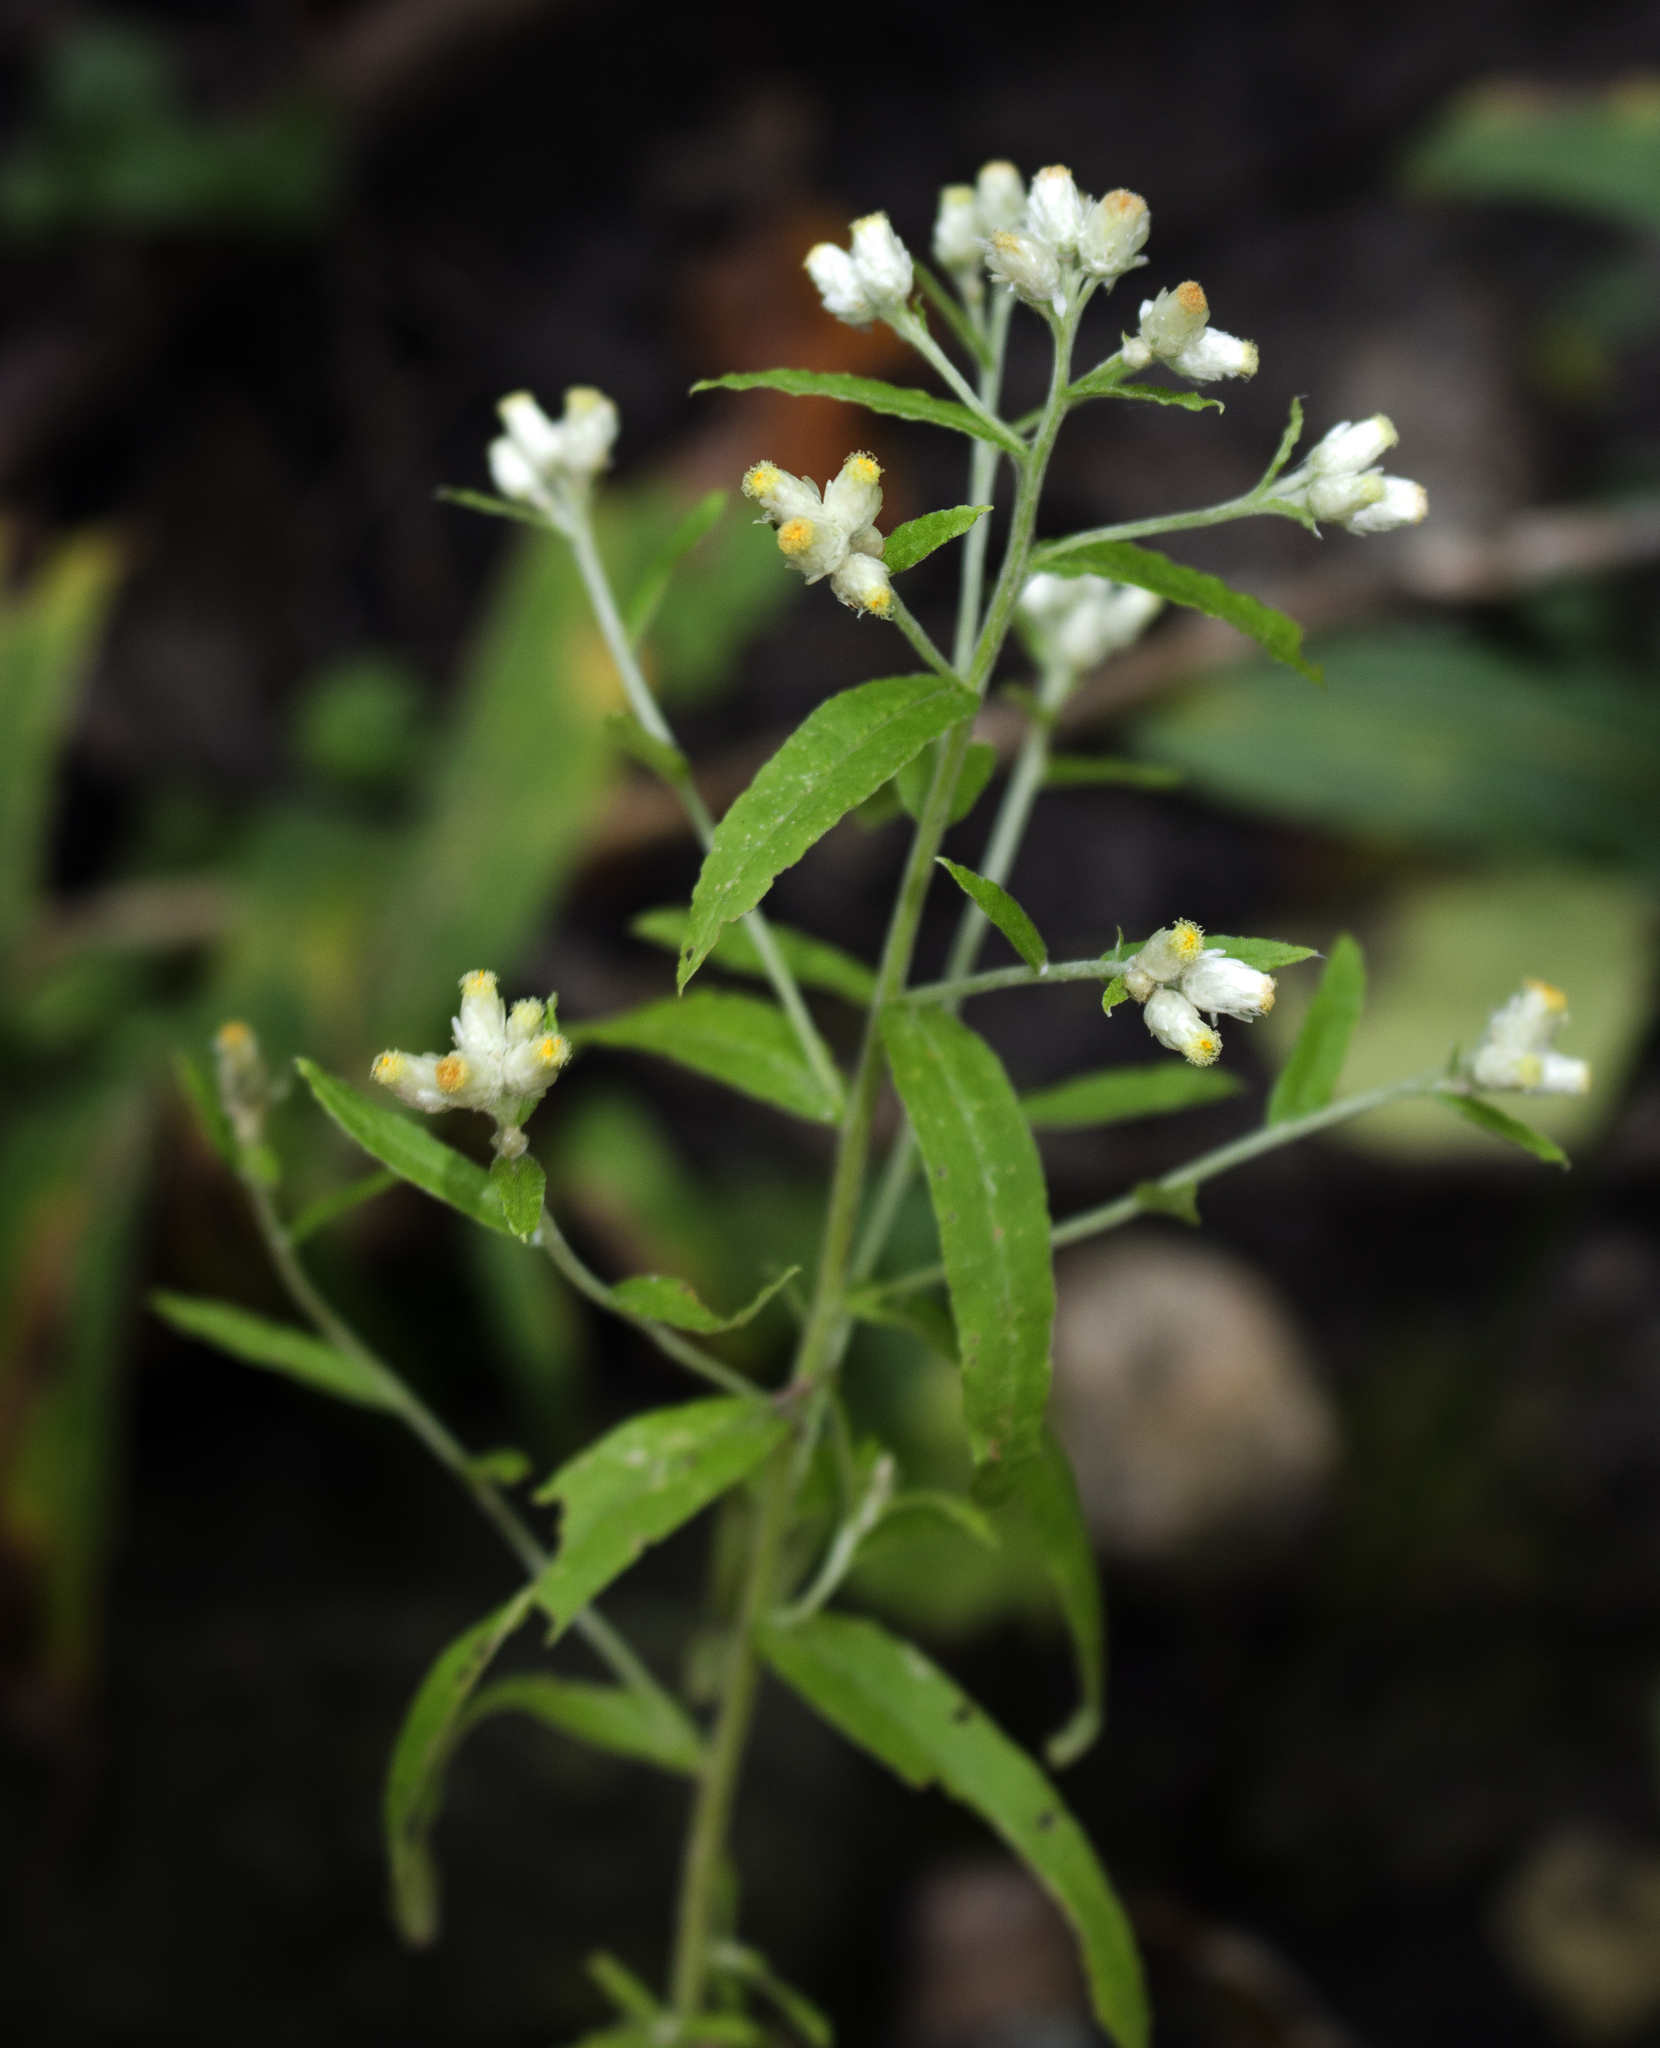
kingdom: Plantae
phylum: Tracheophyta
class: Magnoliopsida
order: Asterales
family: Asteraceae
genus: Pseudognaphalium
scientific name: Pseudognaphalium obtusifolium
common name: Eastern rabbit-tobacco
